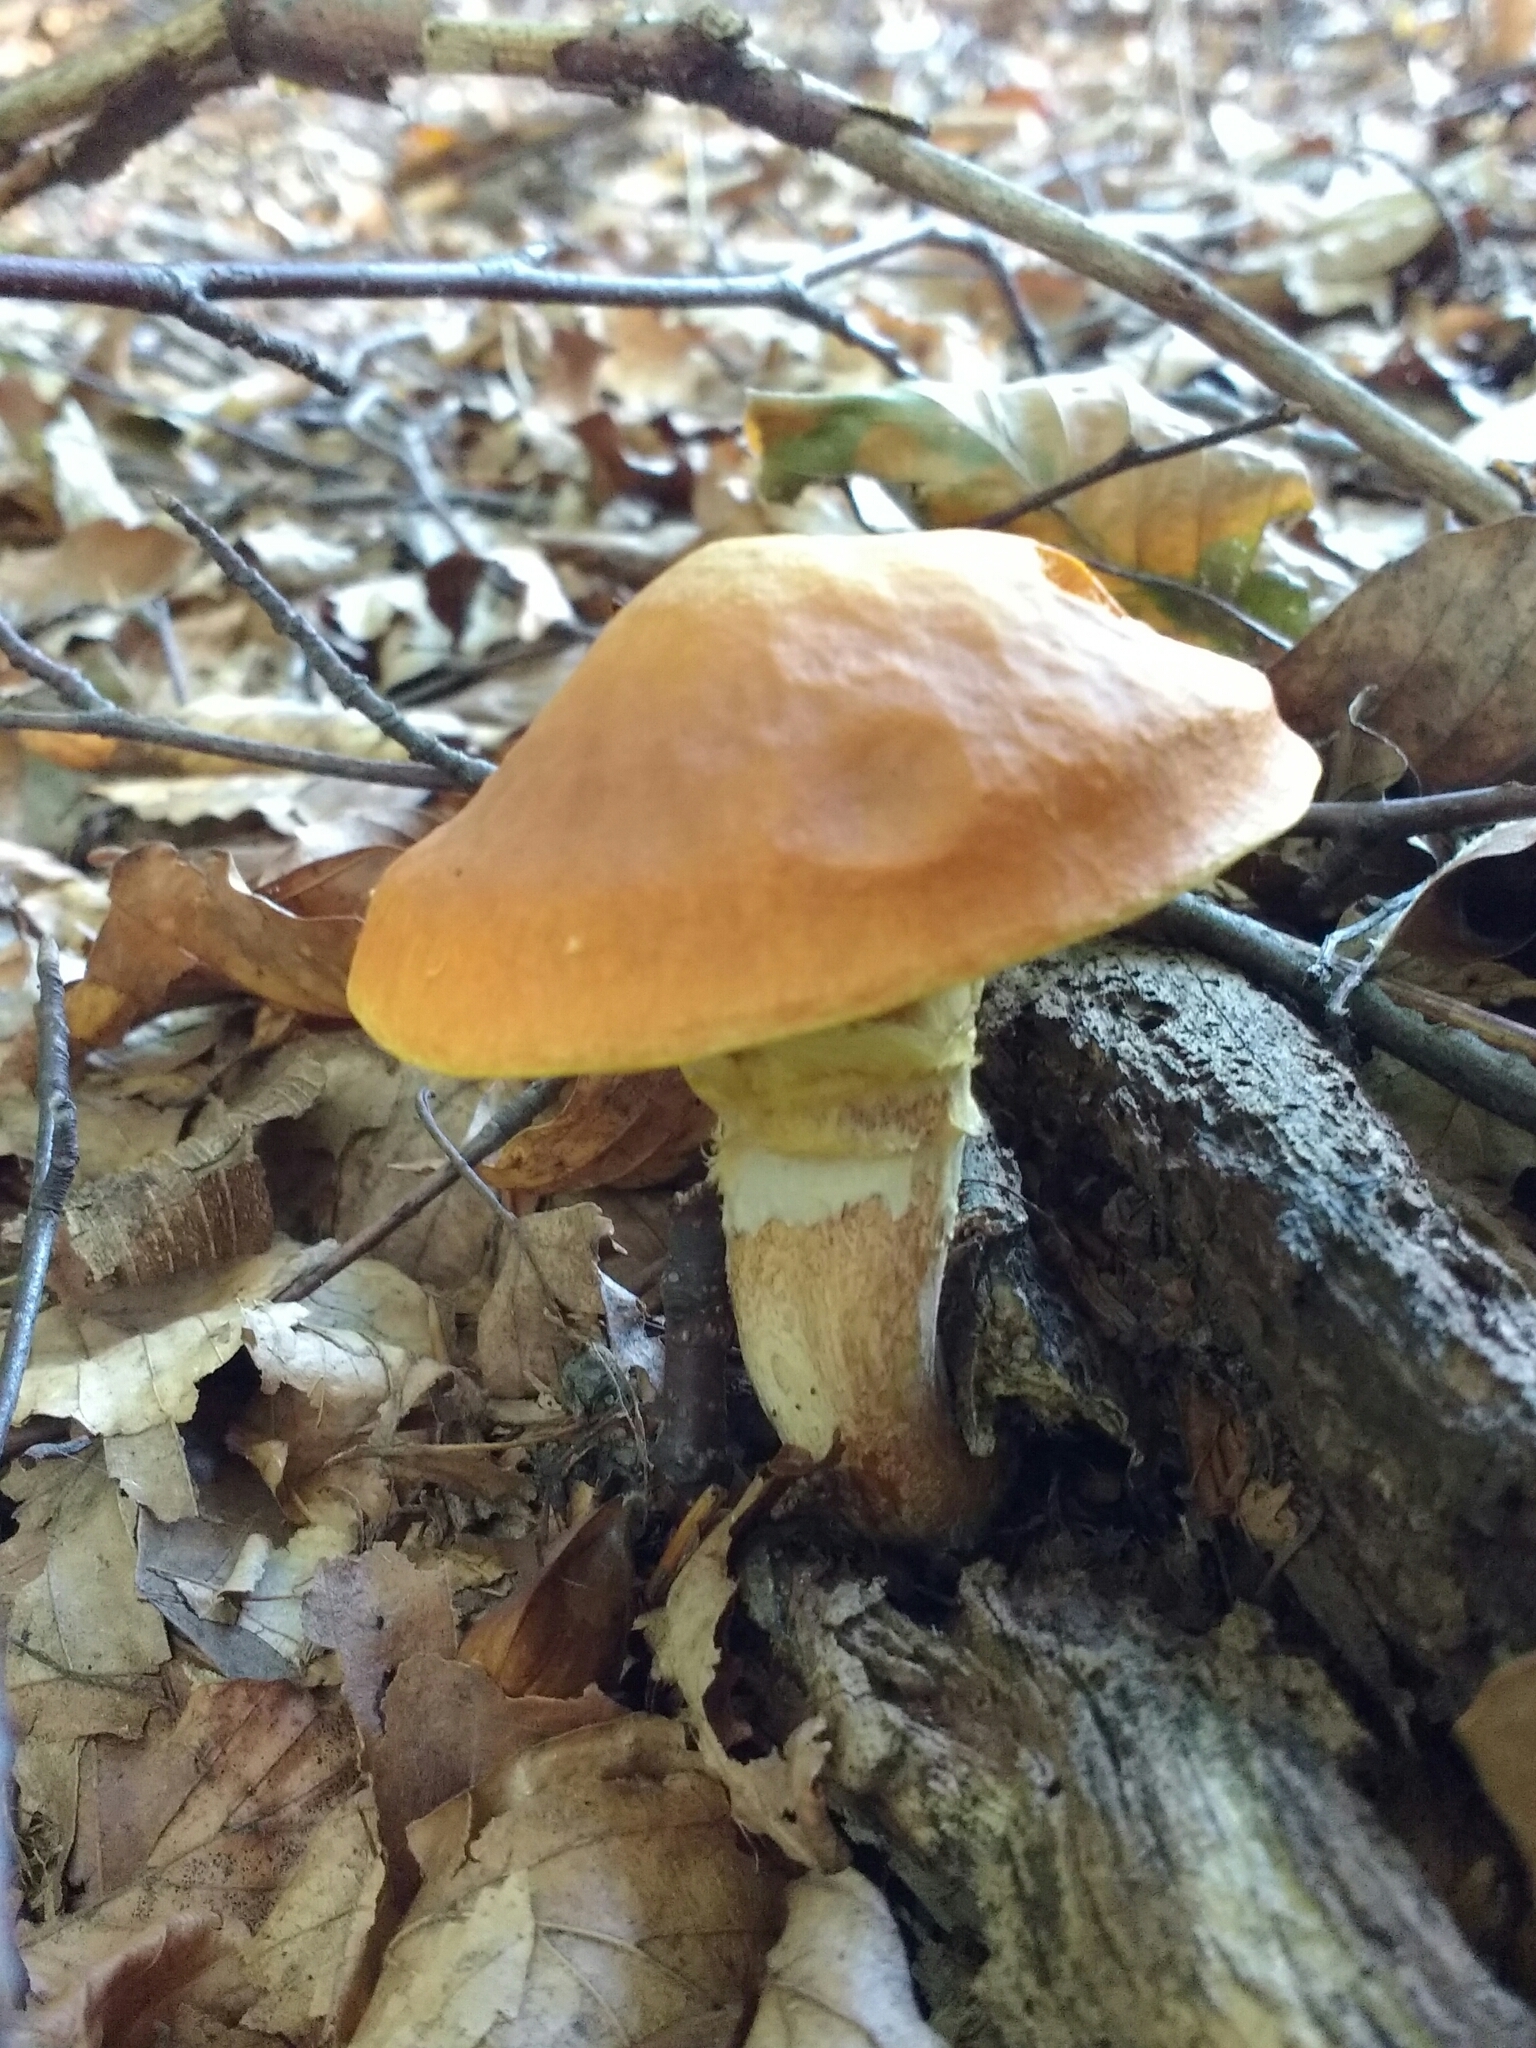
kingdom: Fungi
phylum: Basidiomycota
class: Agaricomycetes
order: Boletales
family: Suillaceae
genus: Suillus
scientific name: Suillus grevillei
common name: Larch bolete
